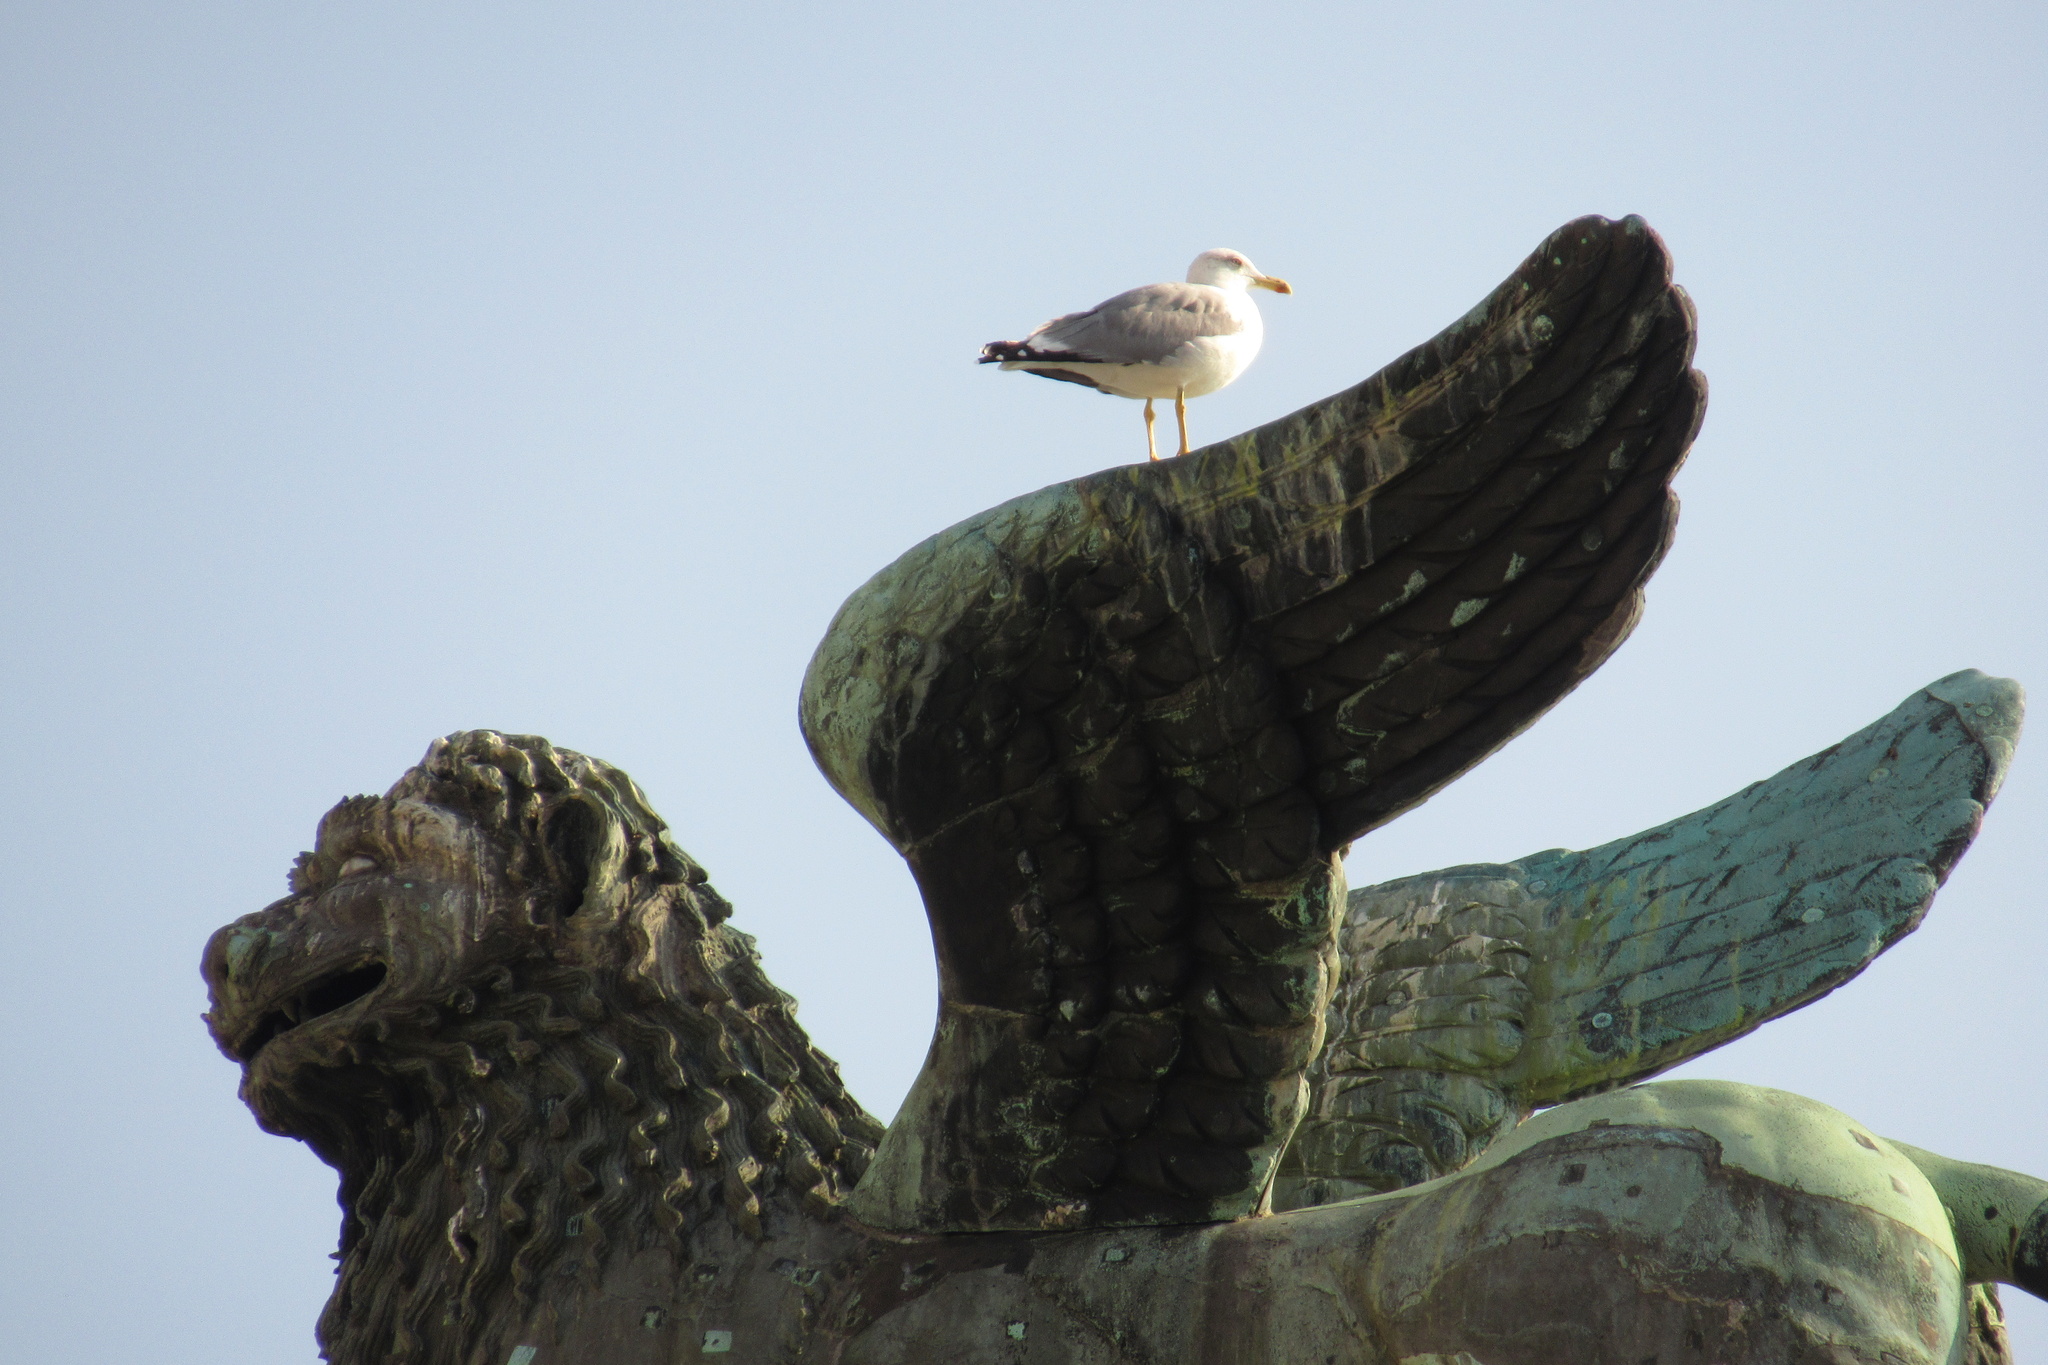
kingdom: Animalia
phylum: Chordata
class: Aves
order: Charadriiformes
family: Laridae
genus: Larus
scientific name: Larus michahellis
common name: Yellow-legged gull
